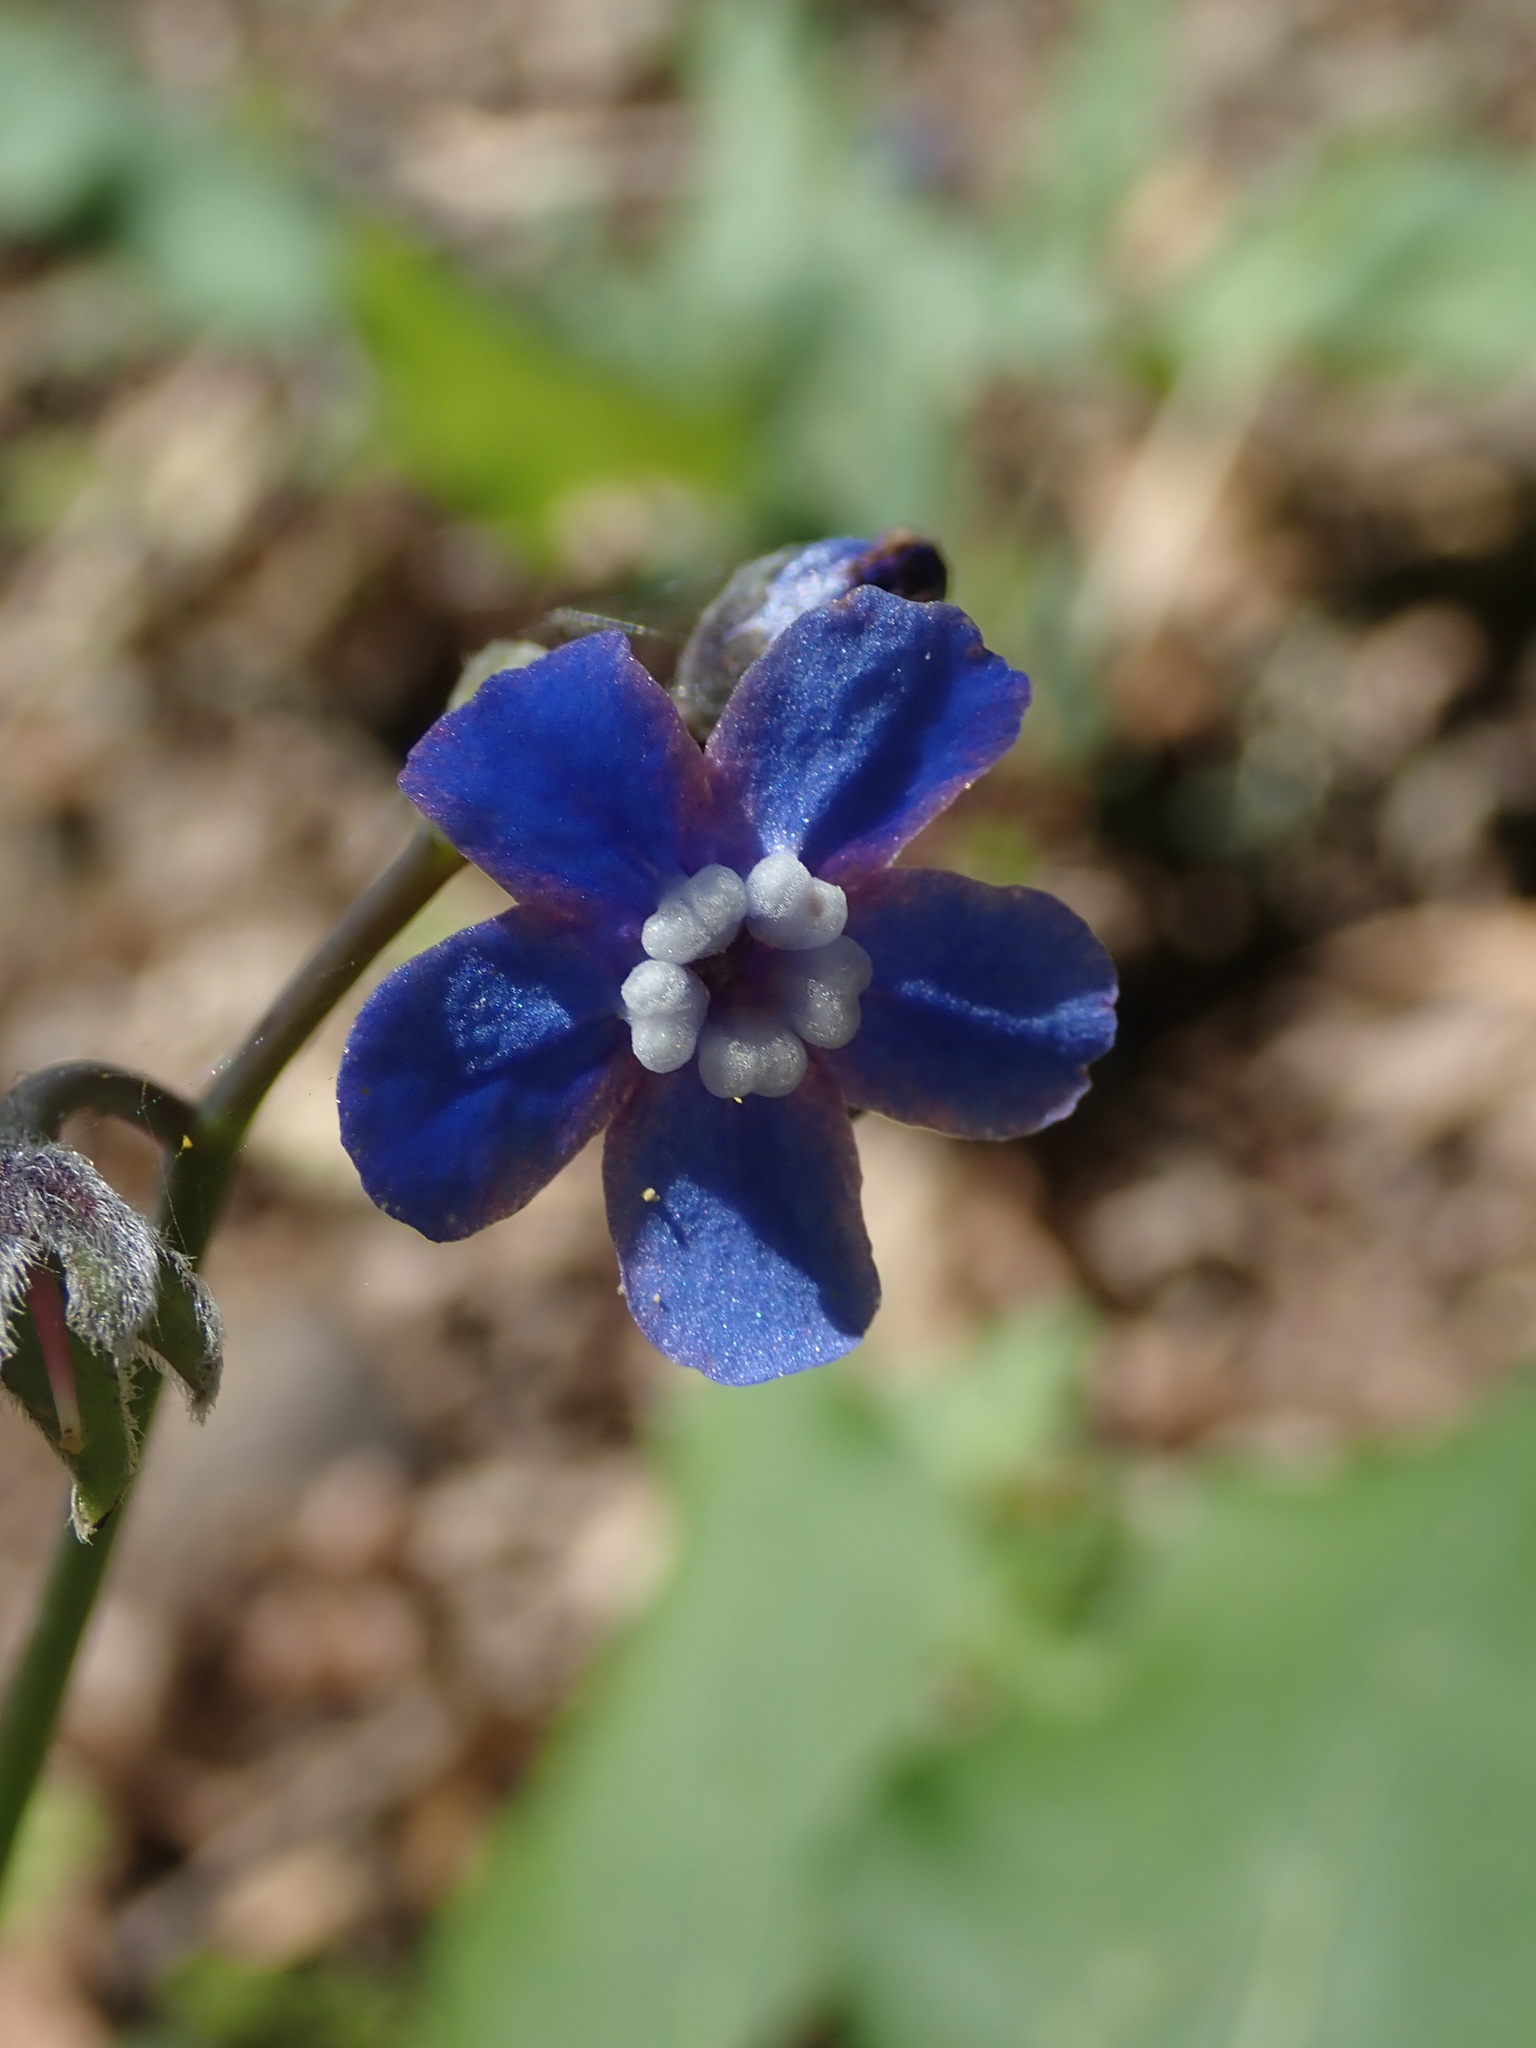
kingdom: Plantae
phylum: Tracheophyta
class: Magnoliopsida
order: Boraginales
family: Boraginaceae
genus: Adelinia
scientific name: Adelinia grande
